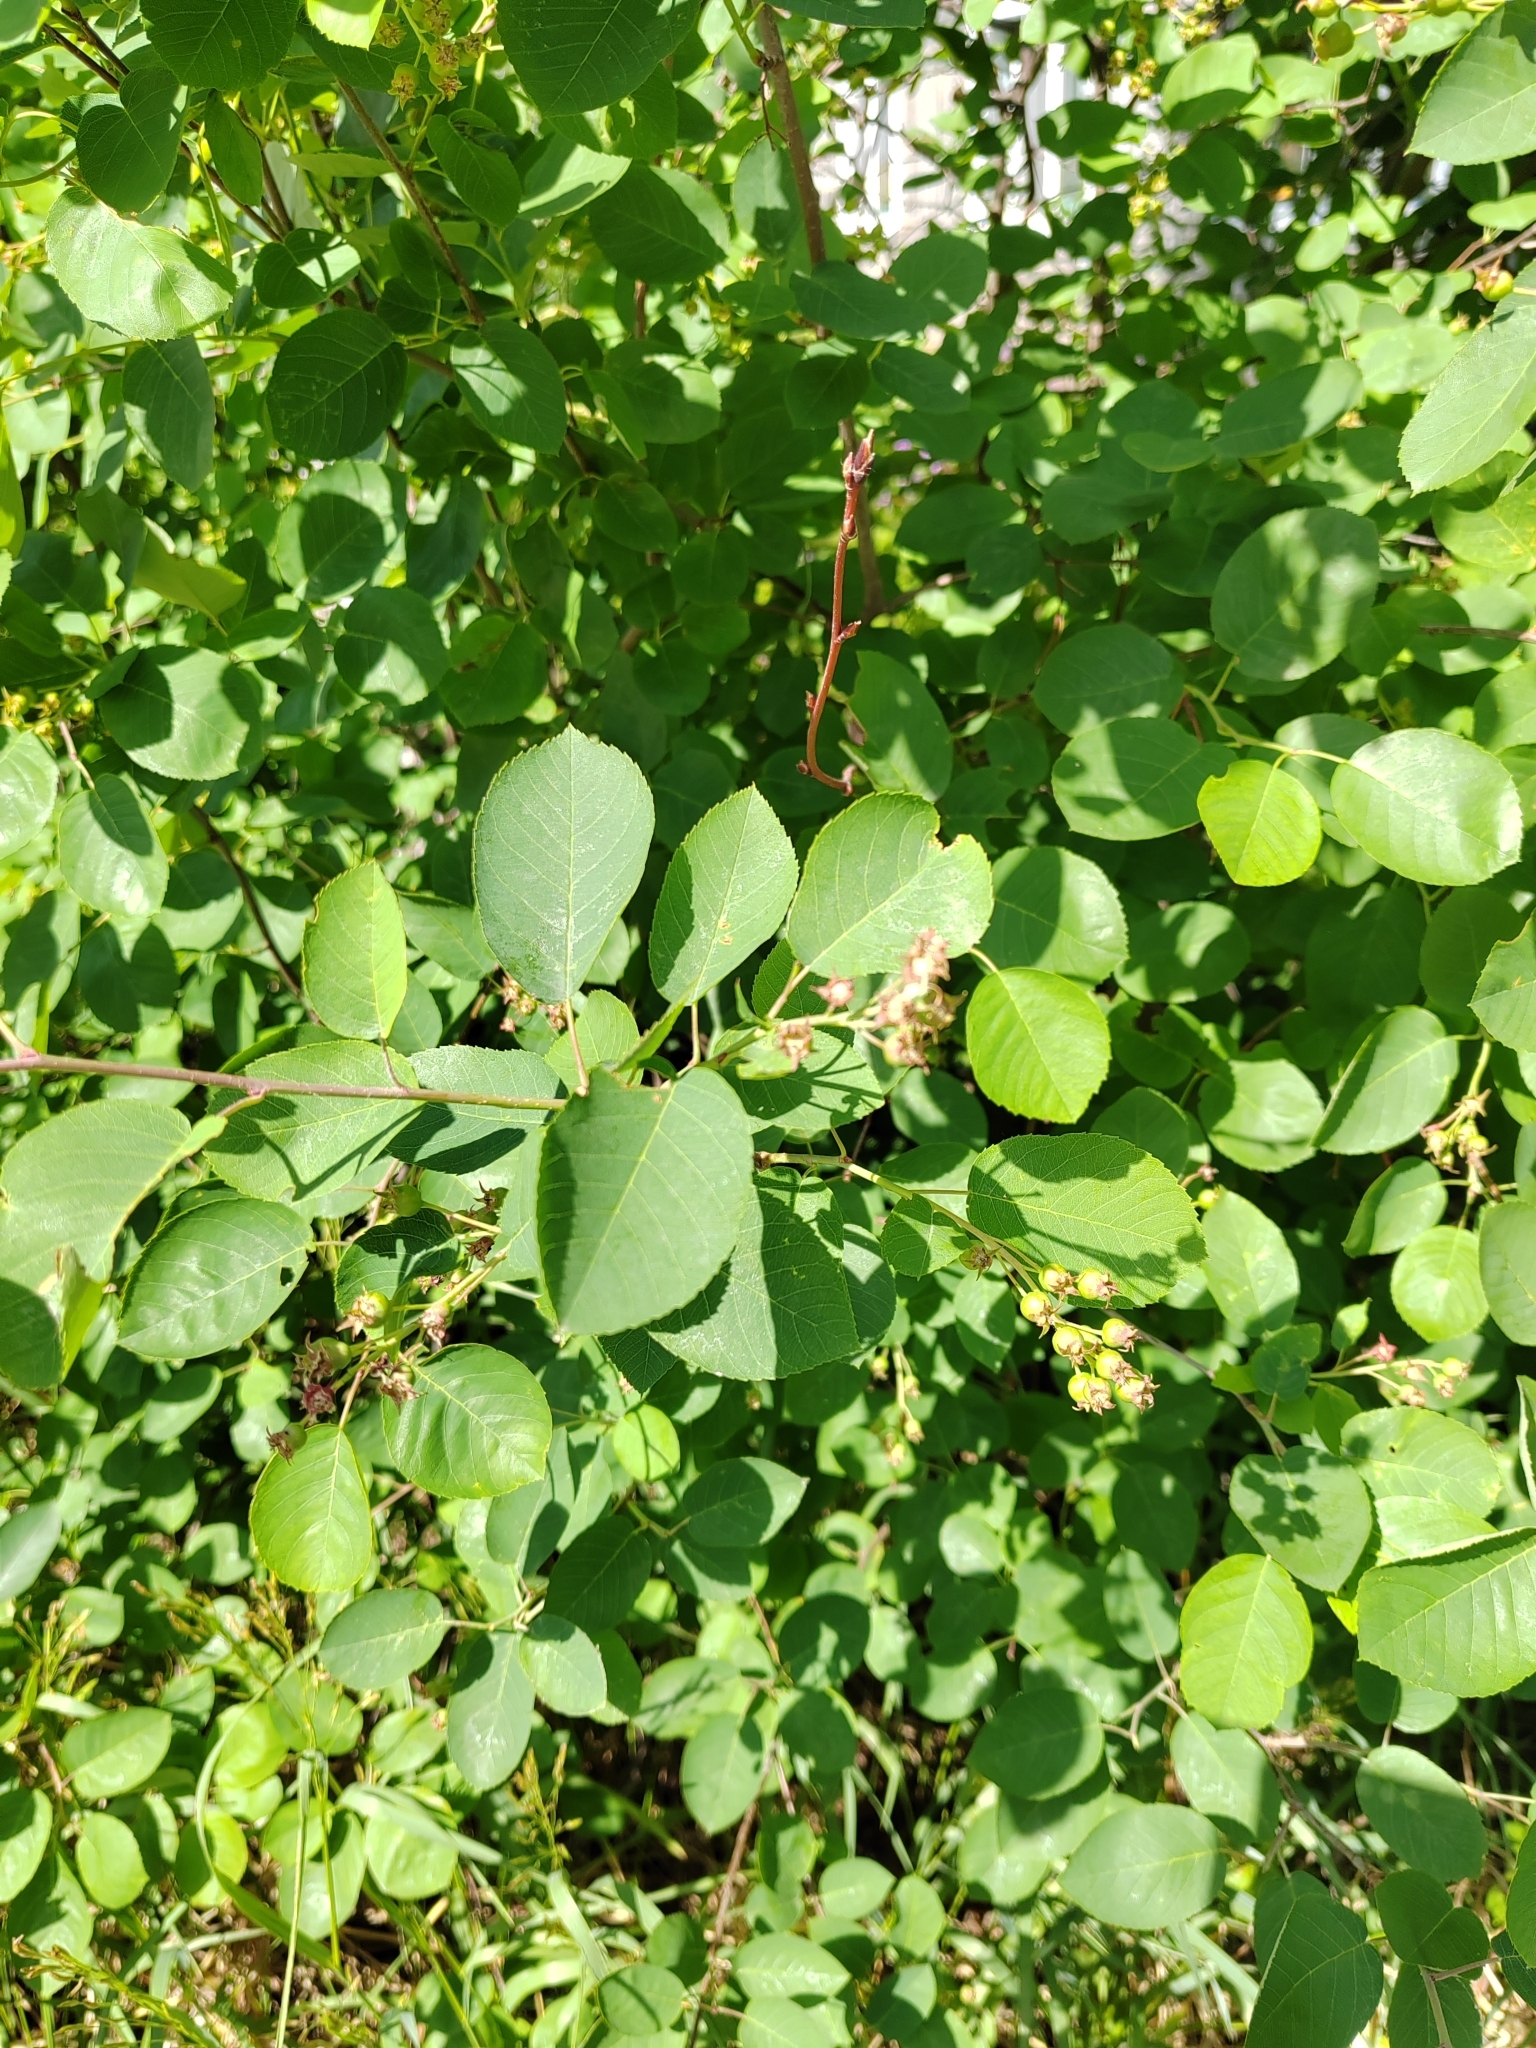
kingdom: Plantae
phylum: Tracheophyta
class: Magnoliopsida
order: Rosales
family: Rosaceae
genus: Amelanchier
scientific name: Amelanchier
